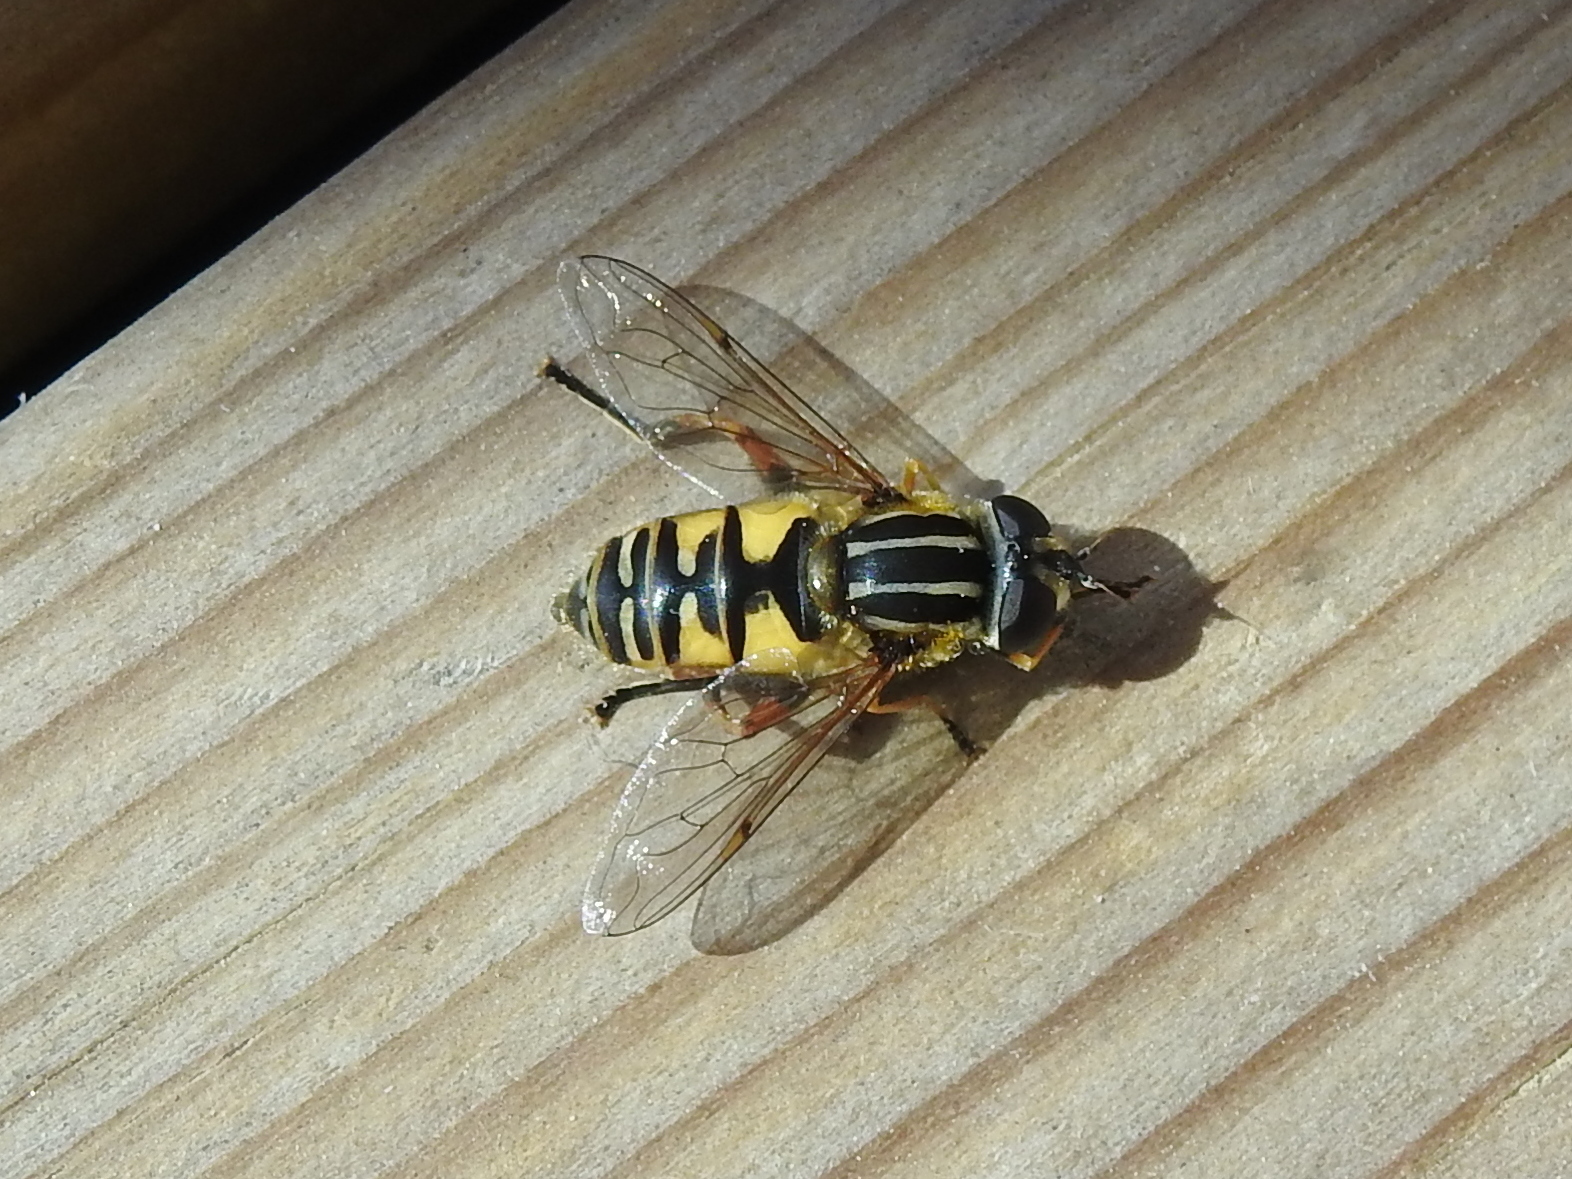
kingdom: Animalia
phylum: Arthropoda
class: Insecta
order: Diptera
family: Syrphidae
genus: Helophilus
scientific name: Helophilus pendulus
